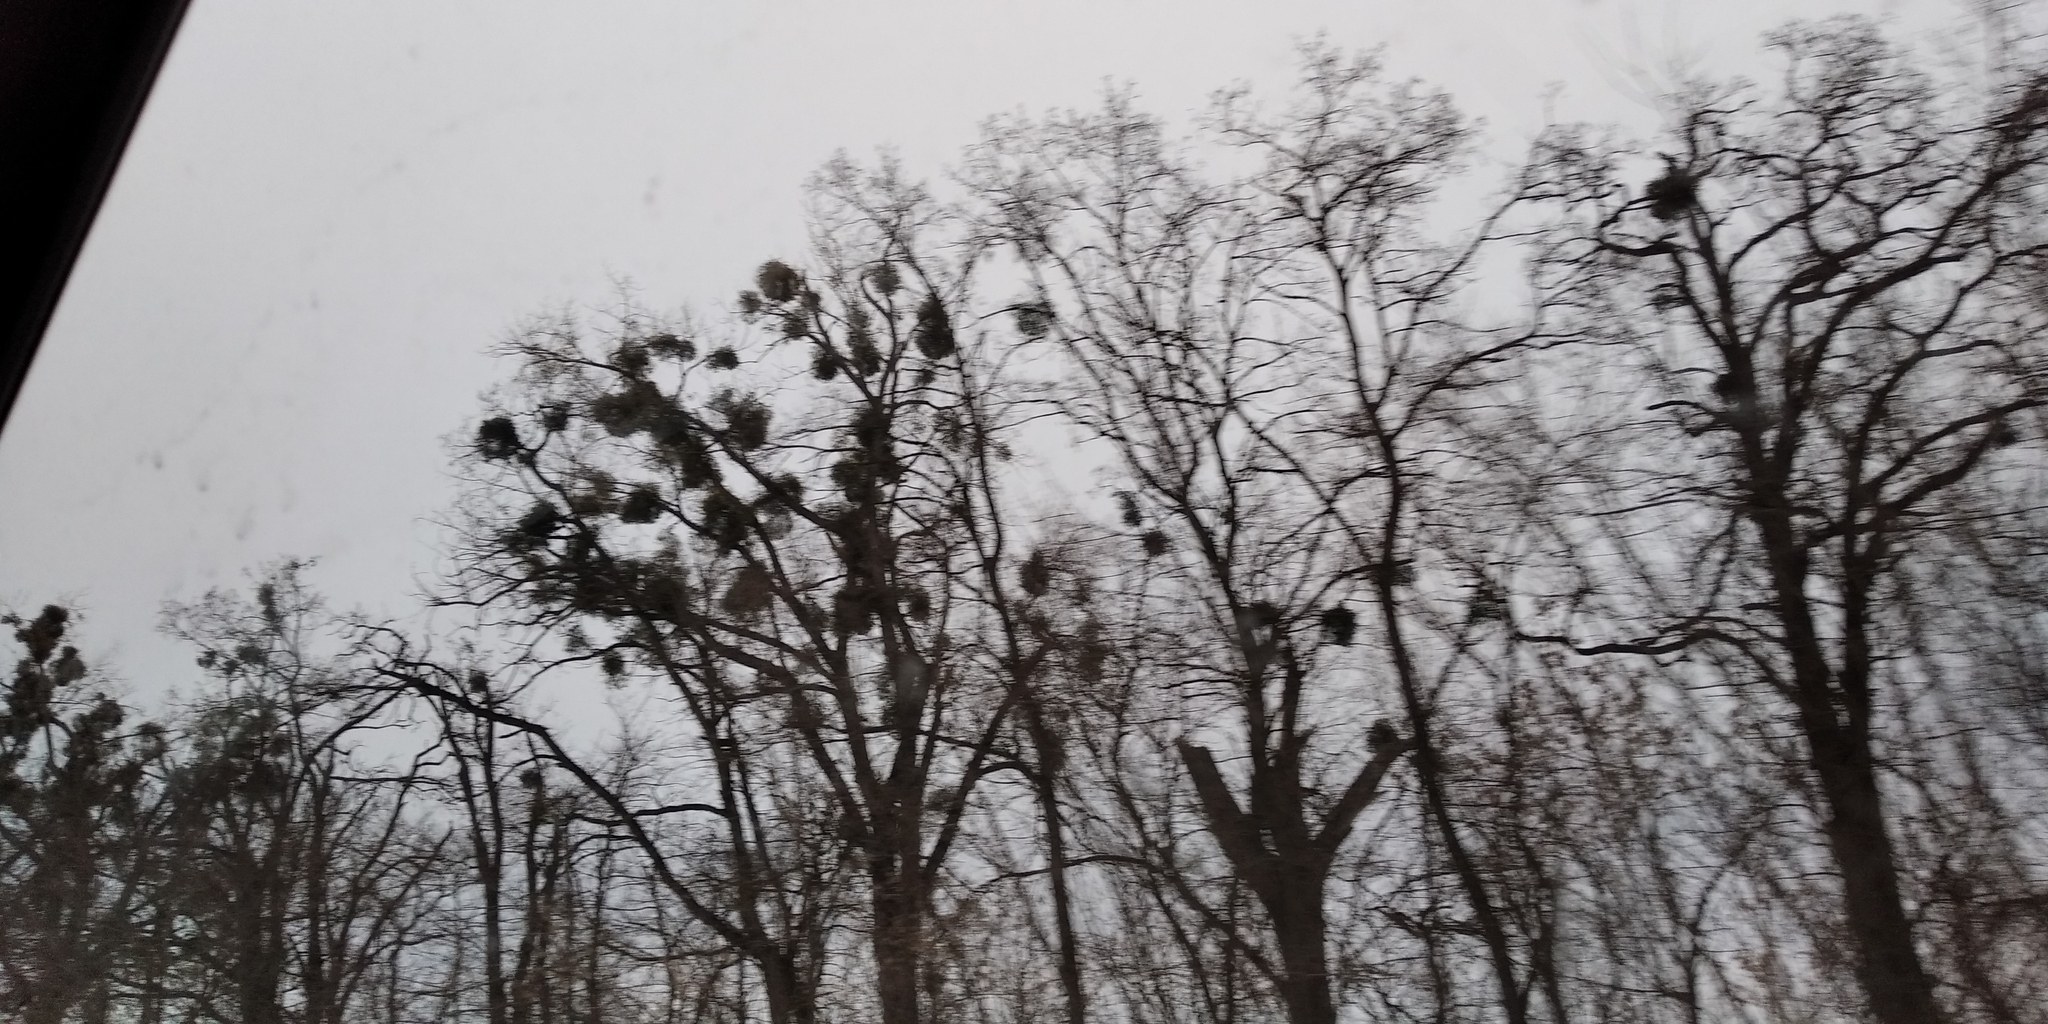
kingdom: Plantae
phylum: Tracheophyta
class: Magnoliopsida
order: Santalales
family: Viscaceae
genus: Viscum
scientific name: Viscum album
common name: Mistletoe
